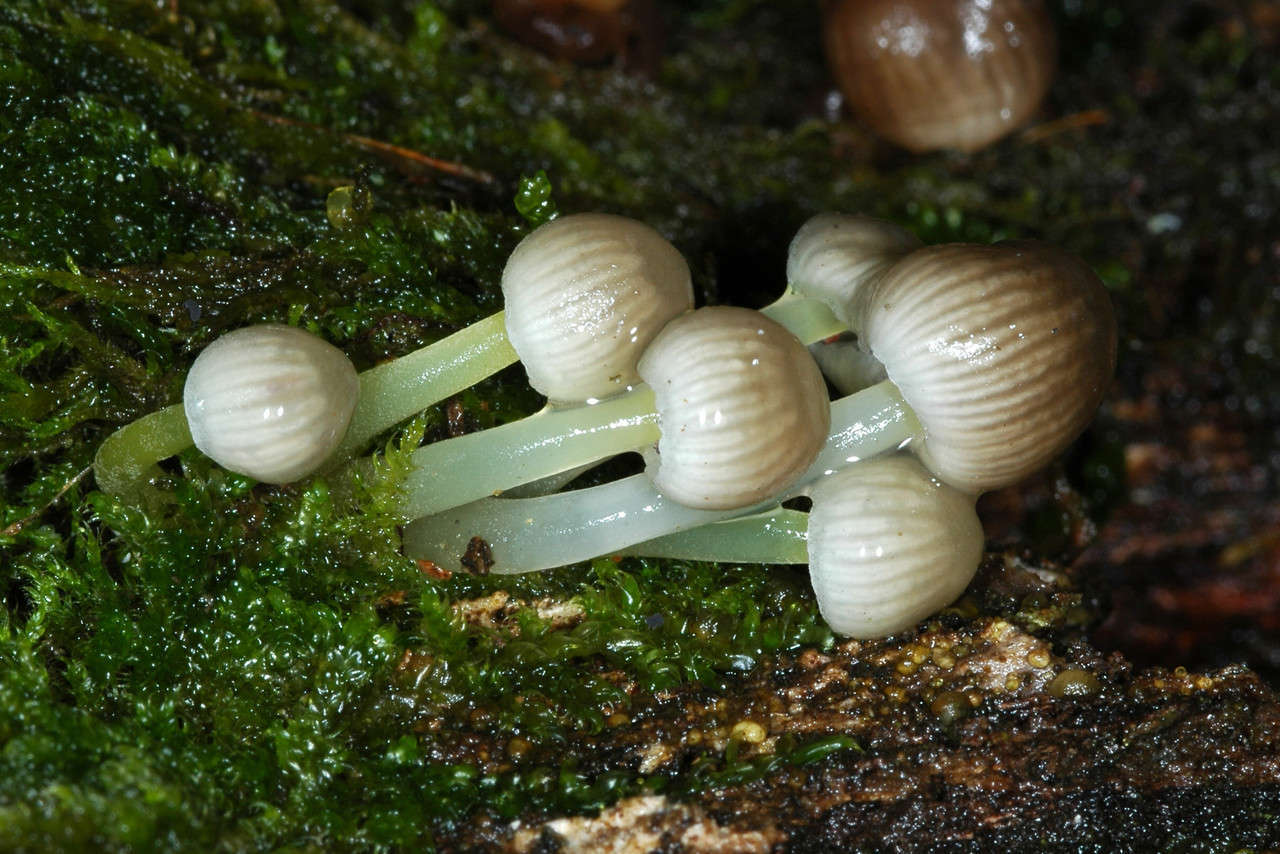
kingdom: Fungi
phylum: Basidiomycota
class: Agaricomycetes
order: Agaricales
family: Mycenaceae
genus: Mycena
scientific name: Mycena epipterygia
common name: Yellowleg bonnet
